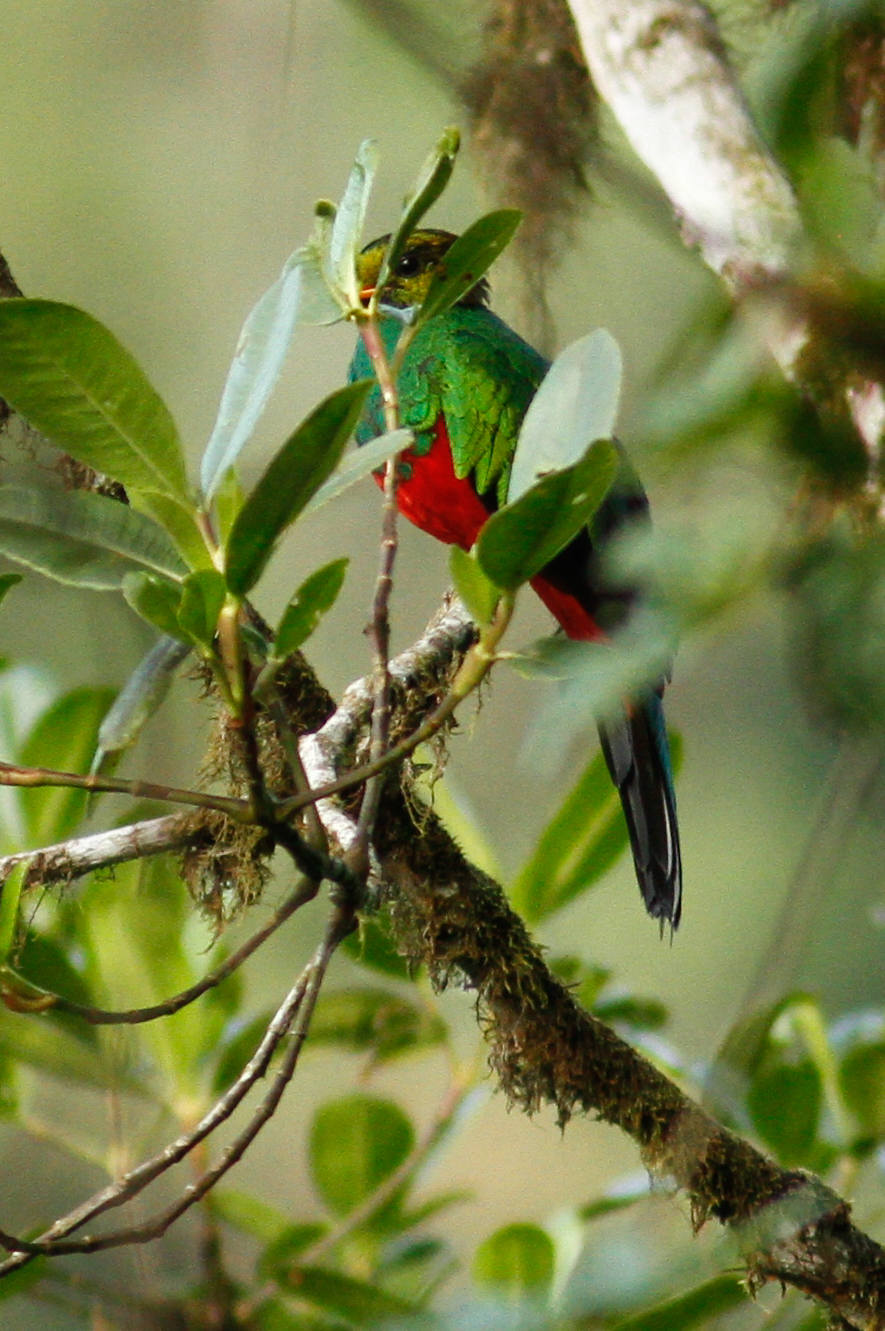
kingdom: Animalia
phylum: Chordata
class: Aves
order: Trogoniformes
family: Trogonidae
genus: Pharomachrus
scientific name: Pharomachrus auriceps
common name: Golden-headed quetzal
